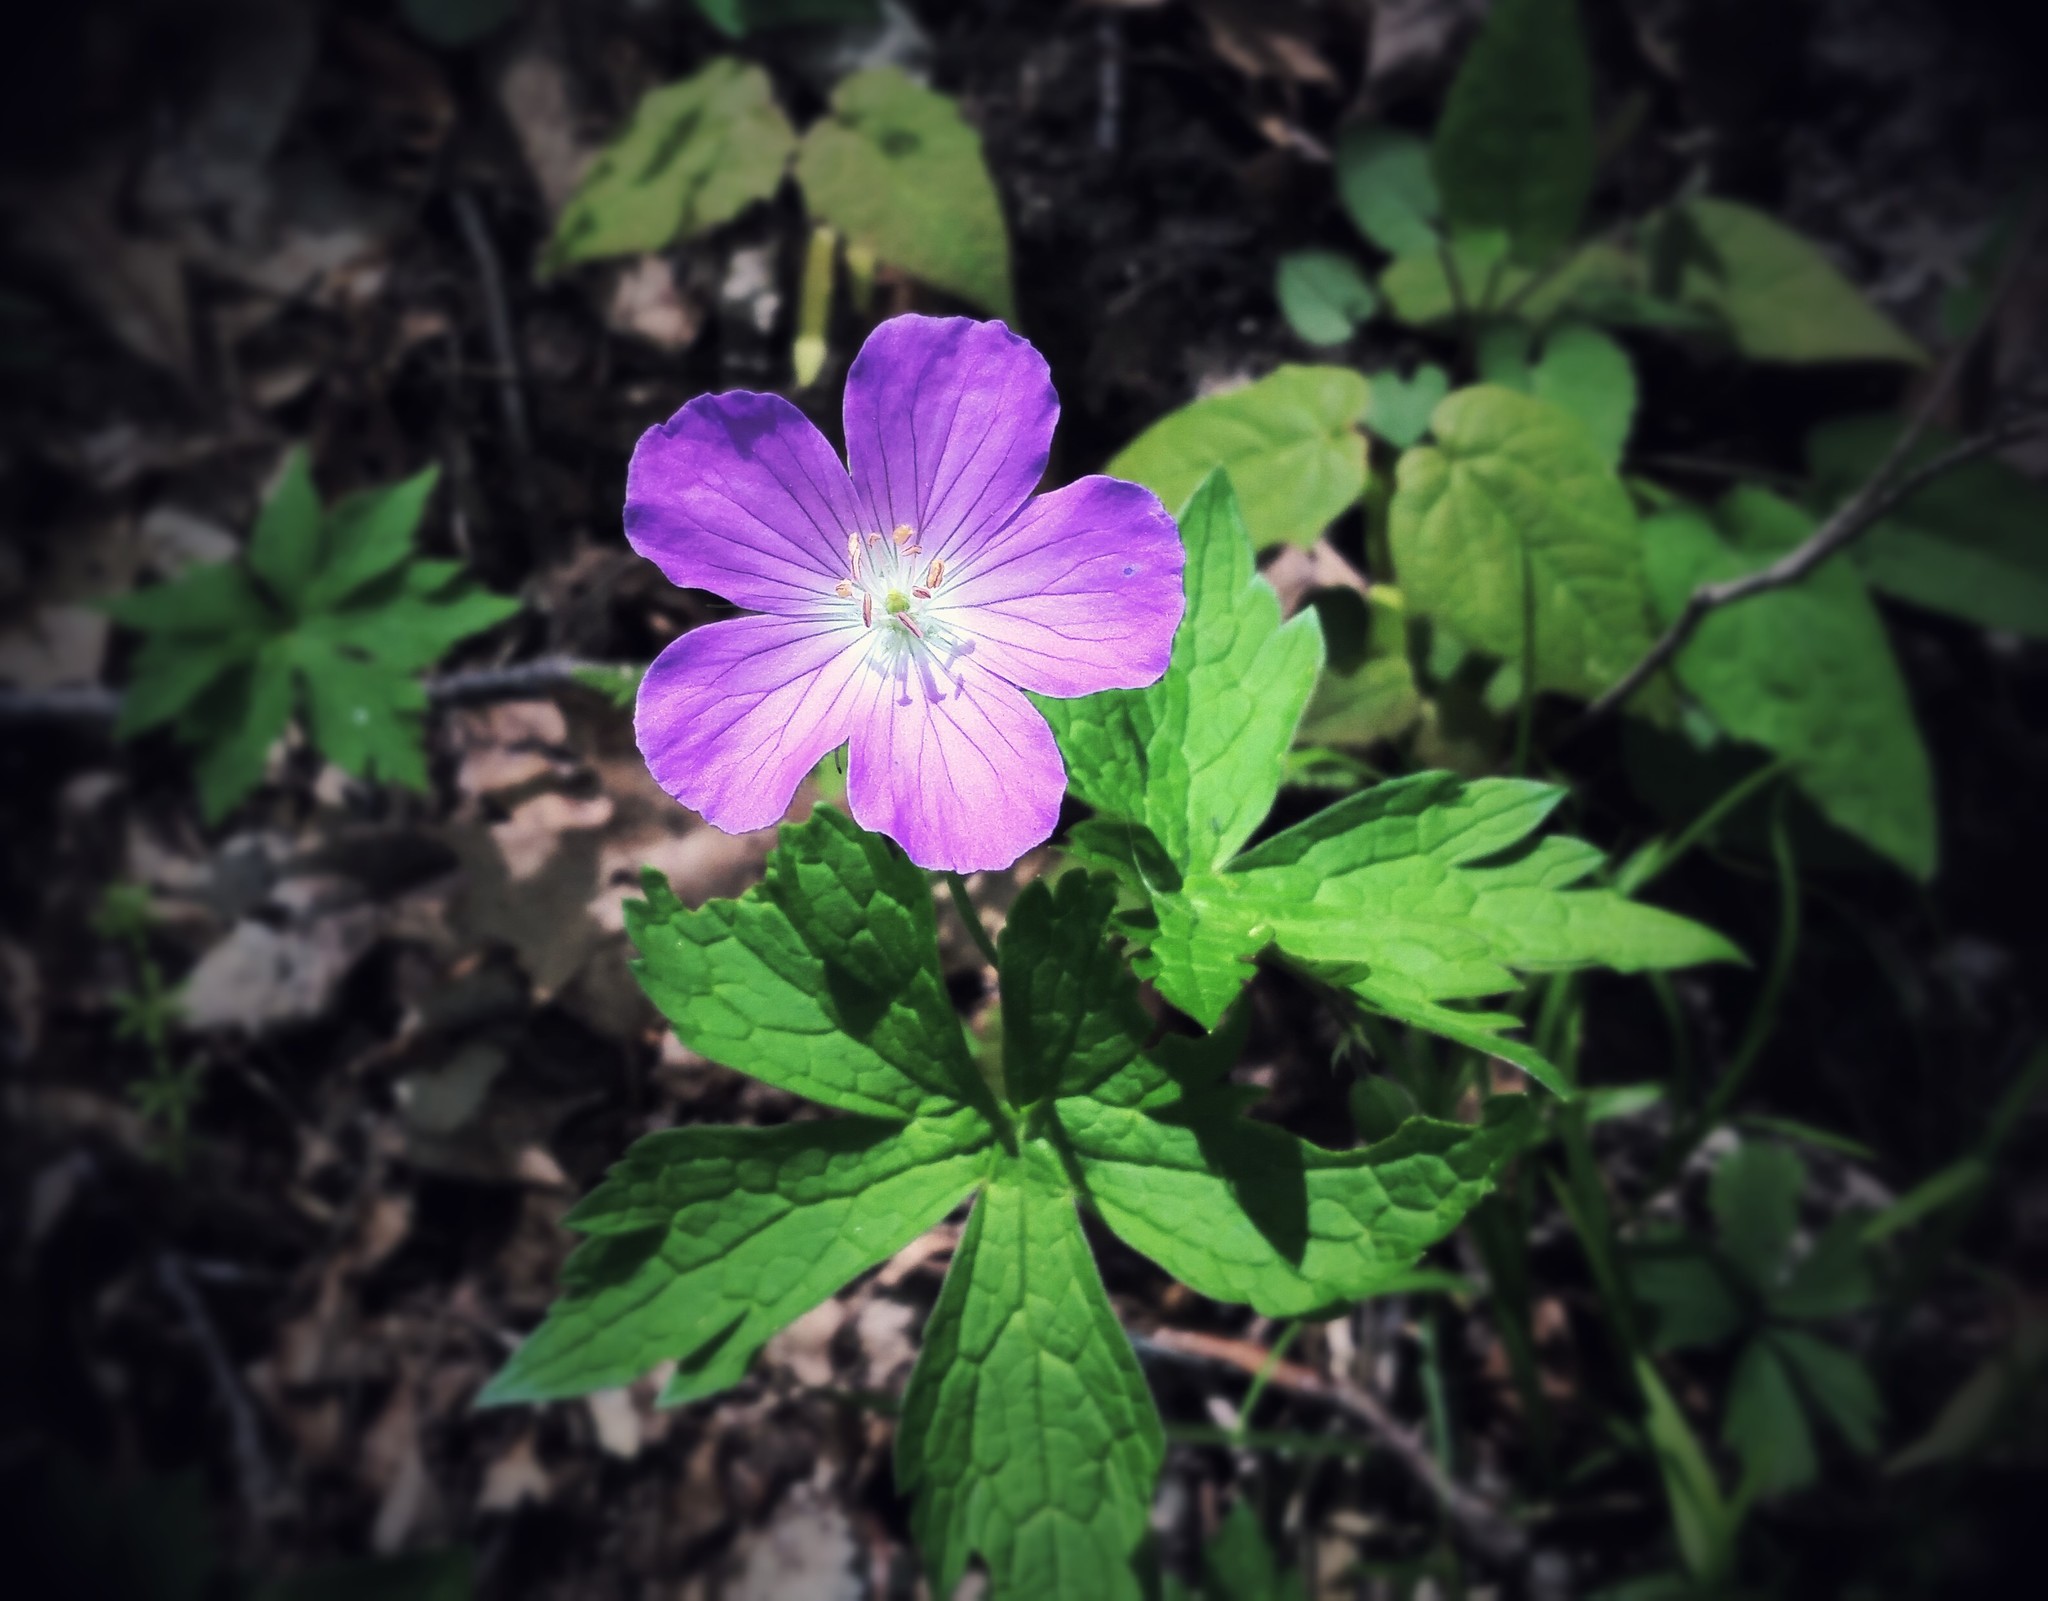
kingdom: Plantae
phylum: Tracheophyta
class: Magnoliopsida
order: Geraniales
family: Geraniaceae
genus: Geranium
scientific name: Geranium maculatum
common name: Spotted geranium
